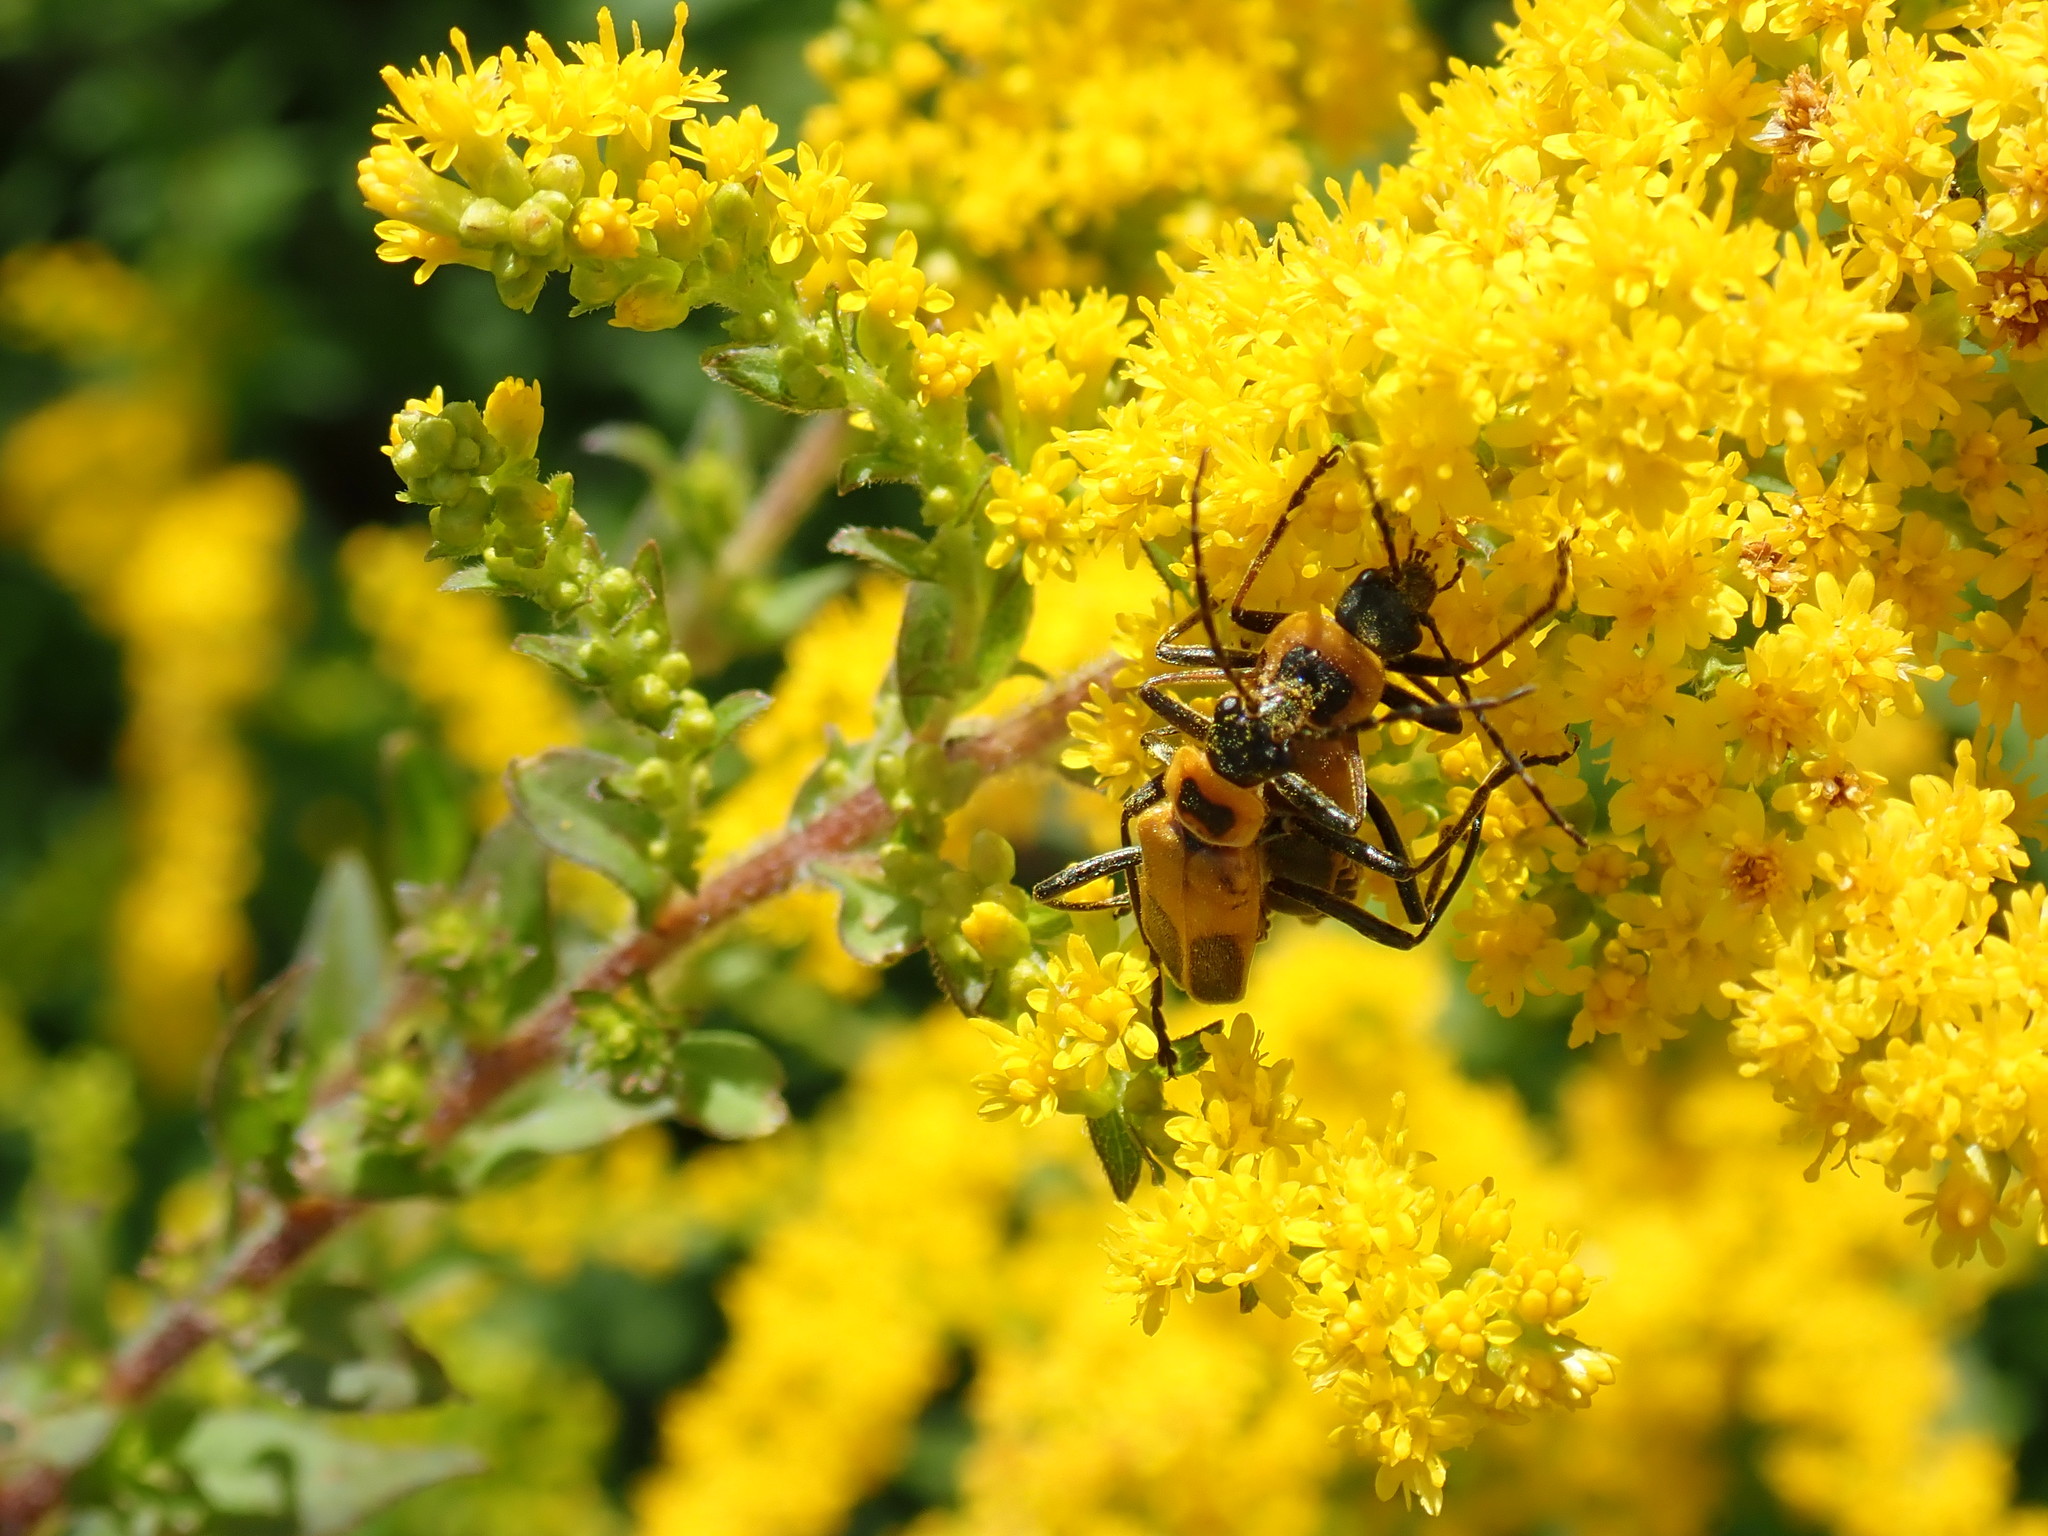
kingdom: Animalia
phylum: Arthropoda
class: Insecta
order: Coleoptera
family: Cantharidae
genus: Chauliognathus
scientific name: Chauliognathus pensylvanicus
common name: Goldenrod soldier beetle
